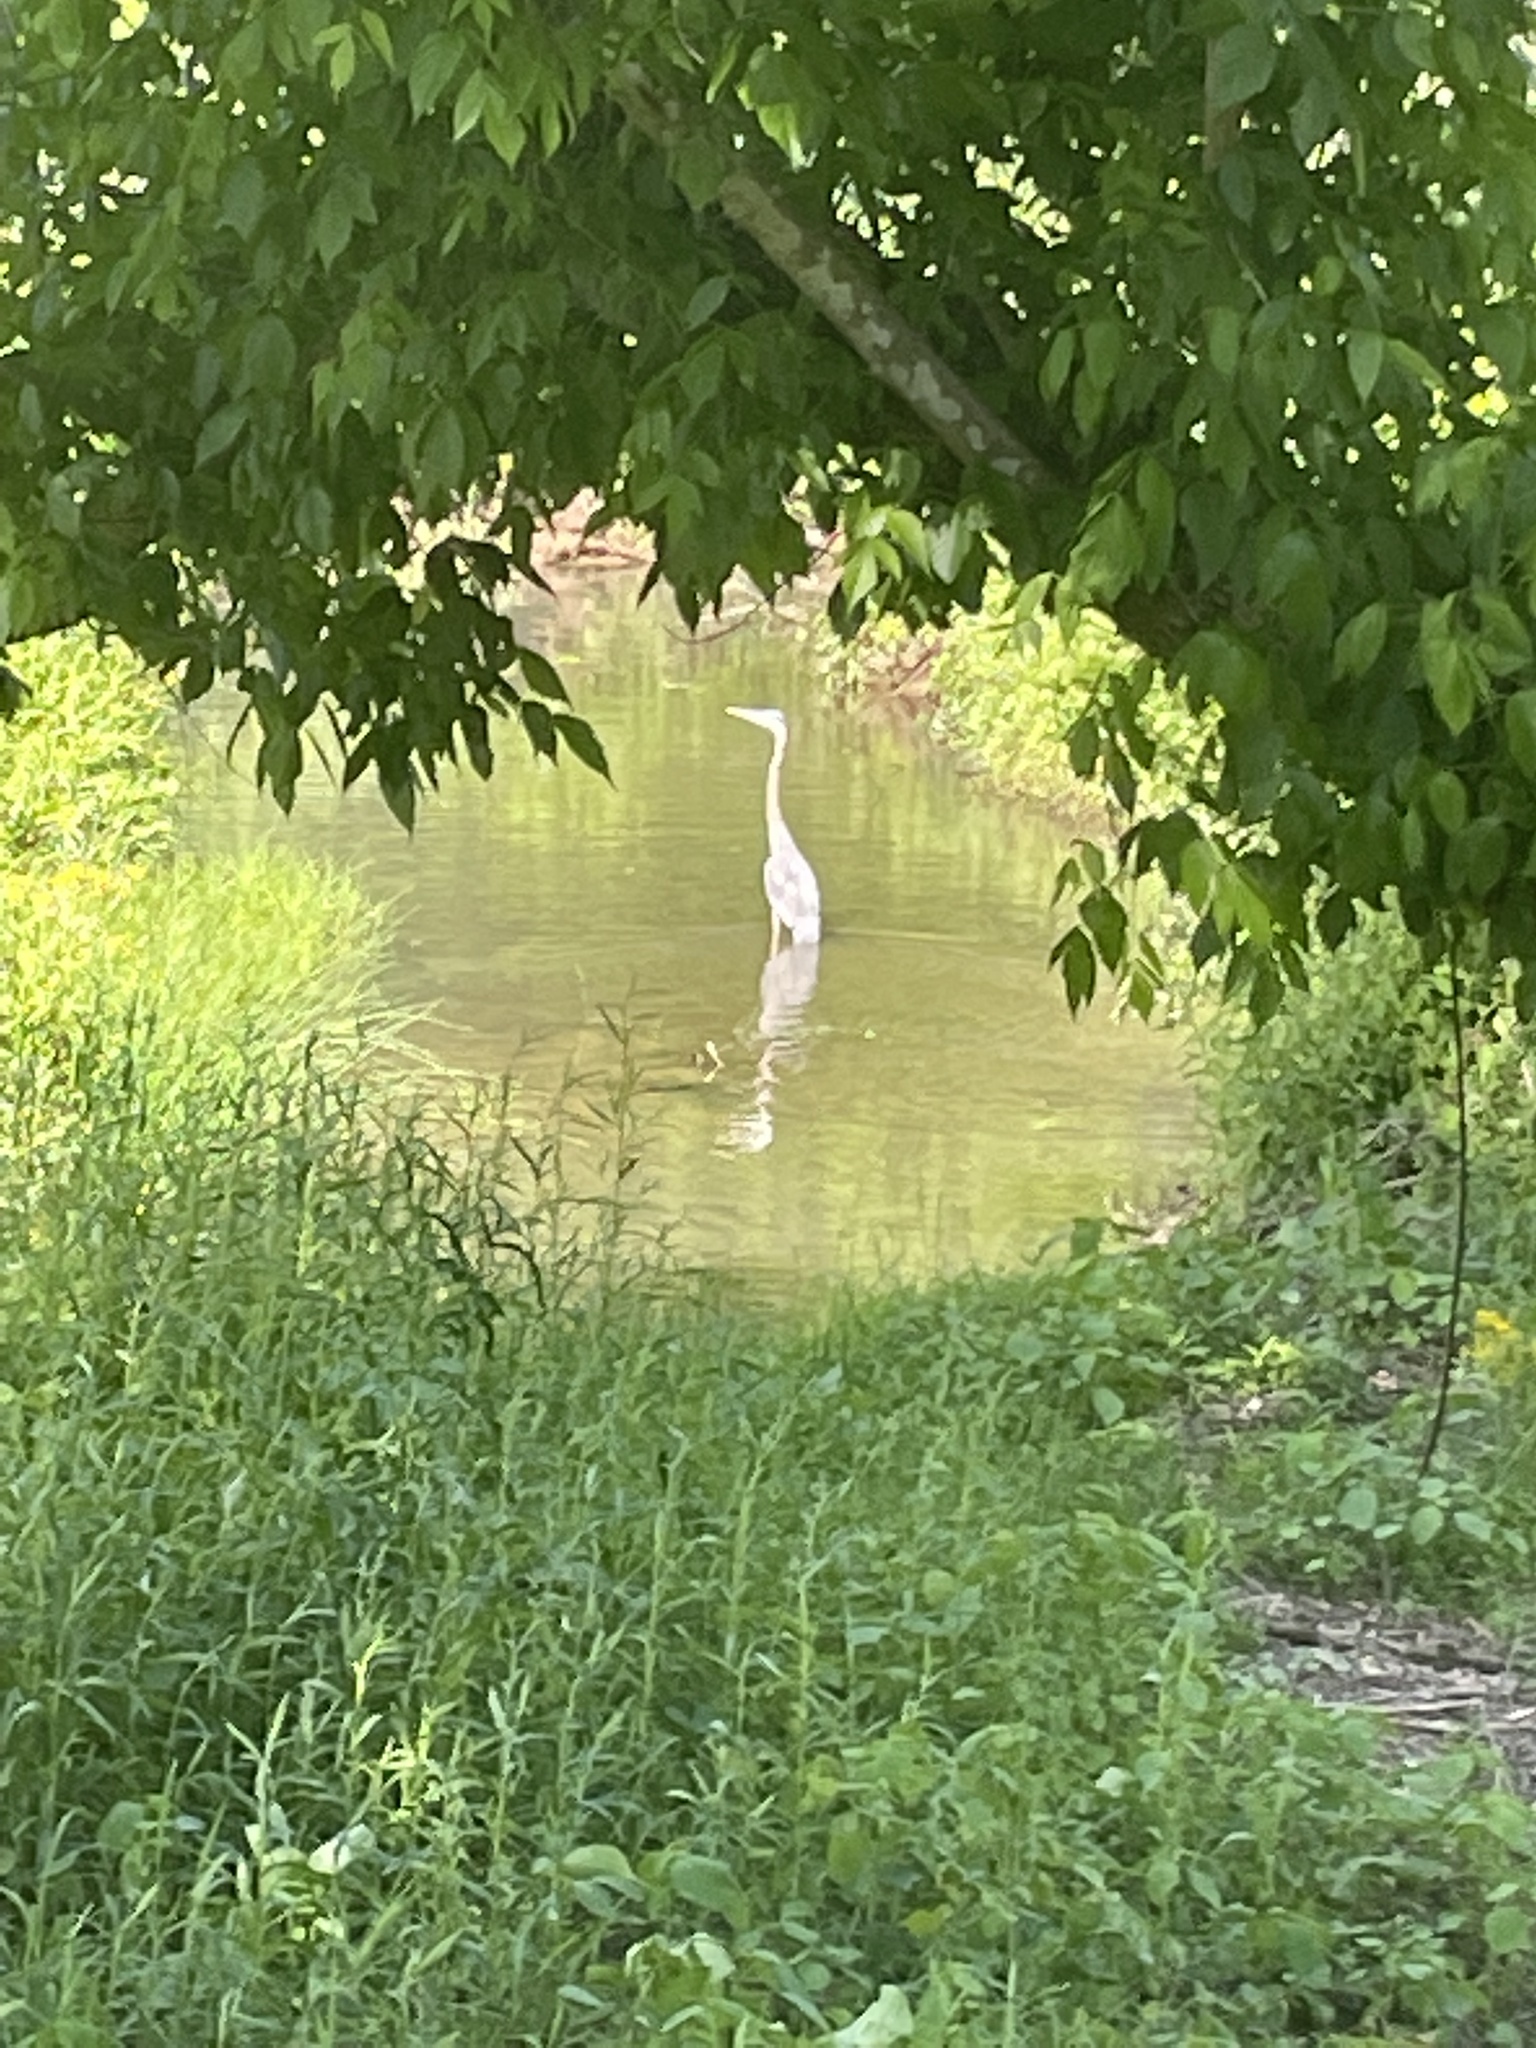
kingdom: Animalia
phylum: Chordata
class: Aves
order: Pelecaniformes
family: Ardeidae
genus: Ardea
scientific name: Ardea herodias
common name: Great blue heron
